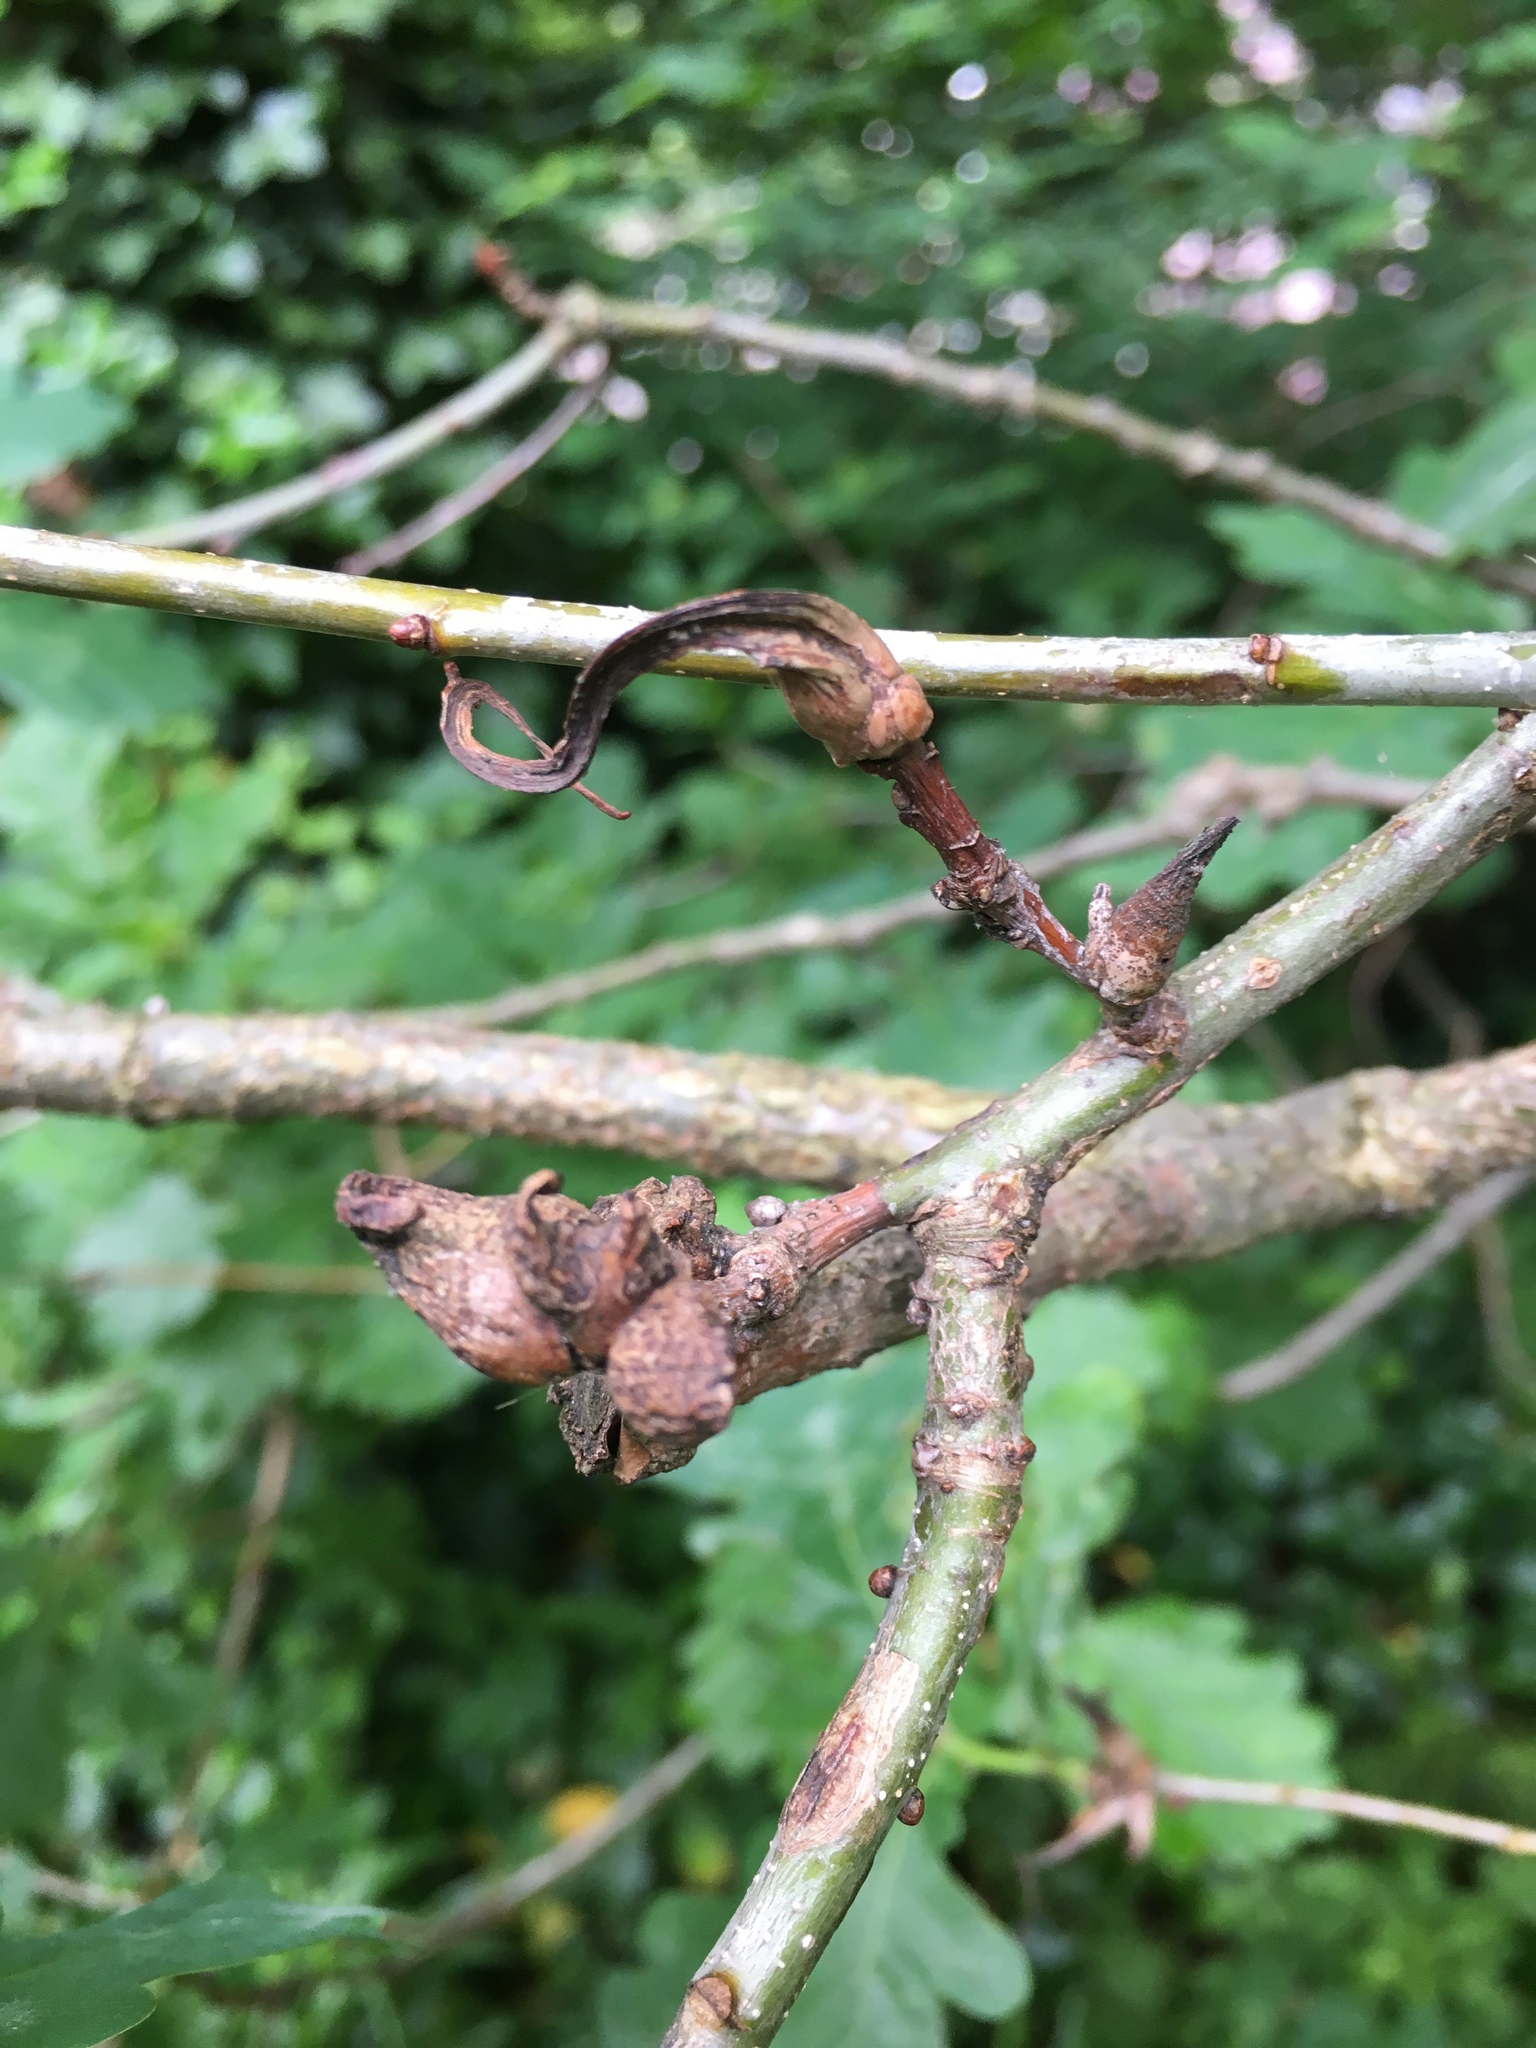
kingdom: Animalia
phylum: Arthropoda
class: Insecta
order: Hymenoptera
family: Cynipidae
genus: Andricus
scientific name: Andricus aries
